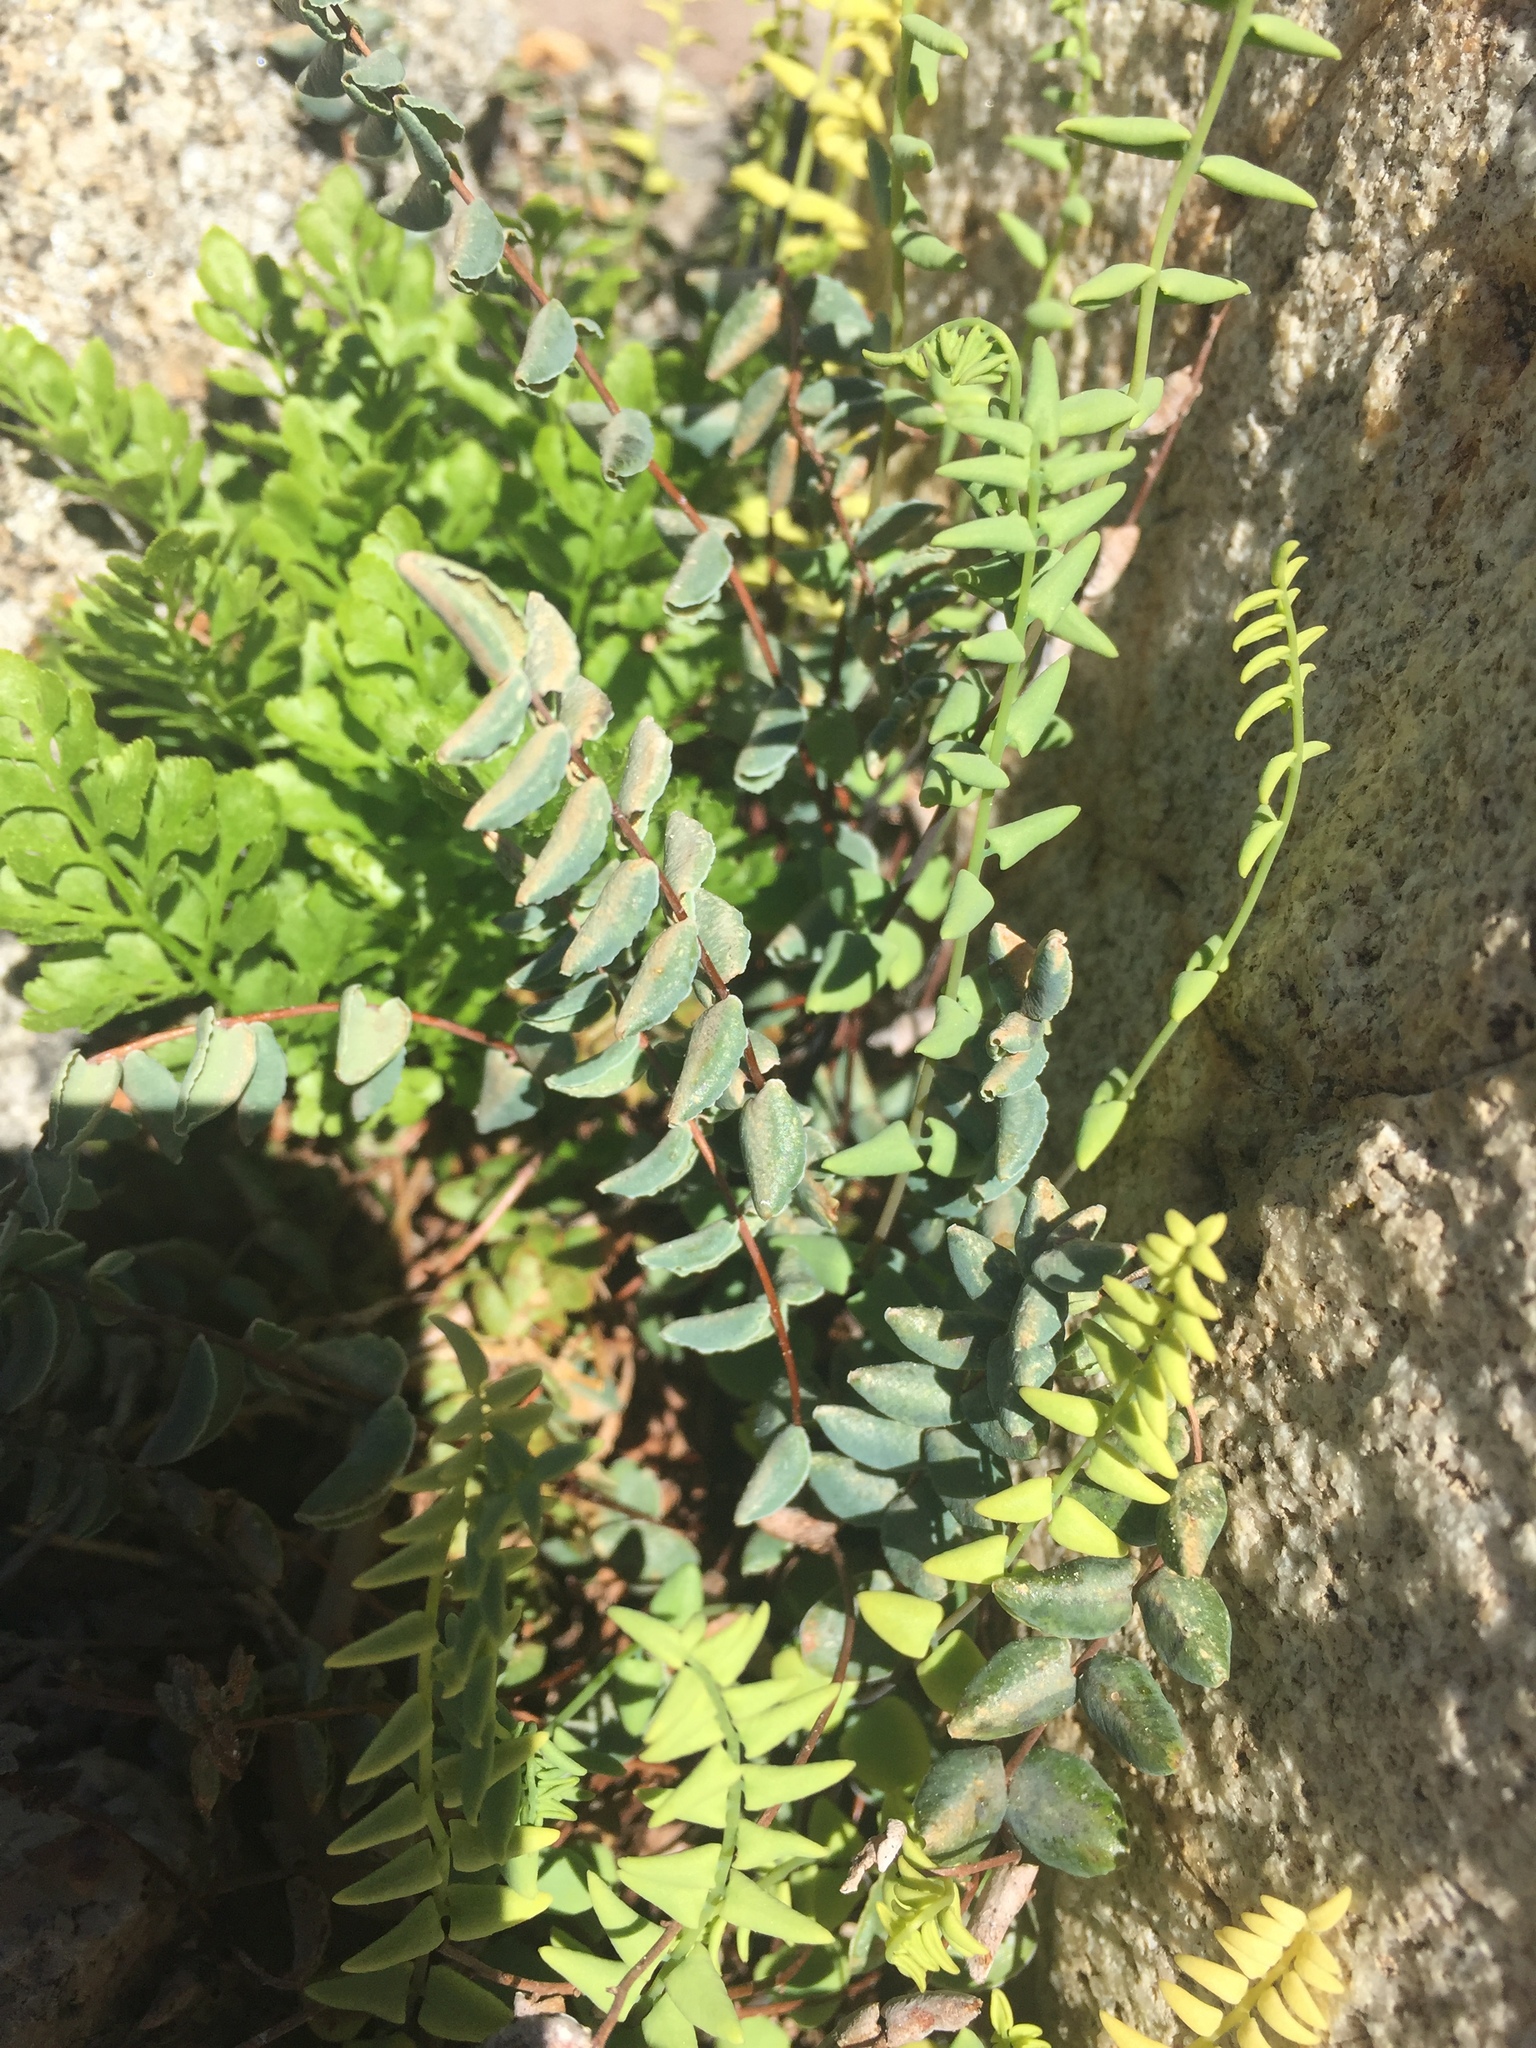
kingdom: Plantae
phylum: Tracheophyta
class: Polypodiopsida
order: Polypodiales
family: Pteridaceae
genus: Pellaea
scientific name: Pellaea bridgesii
